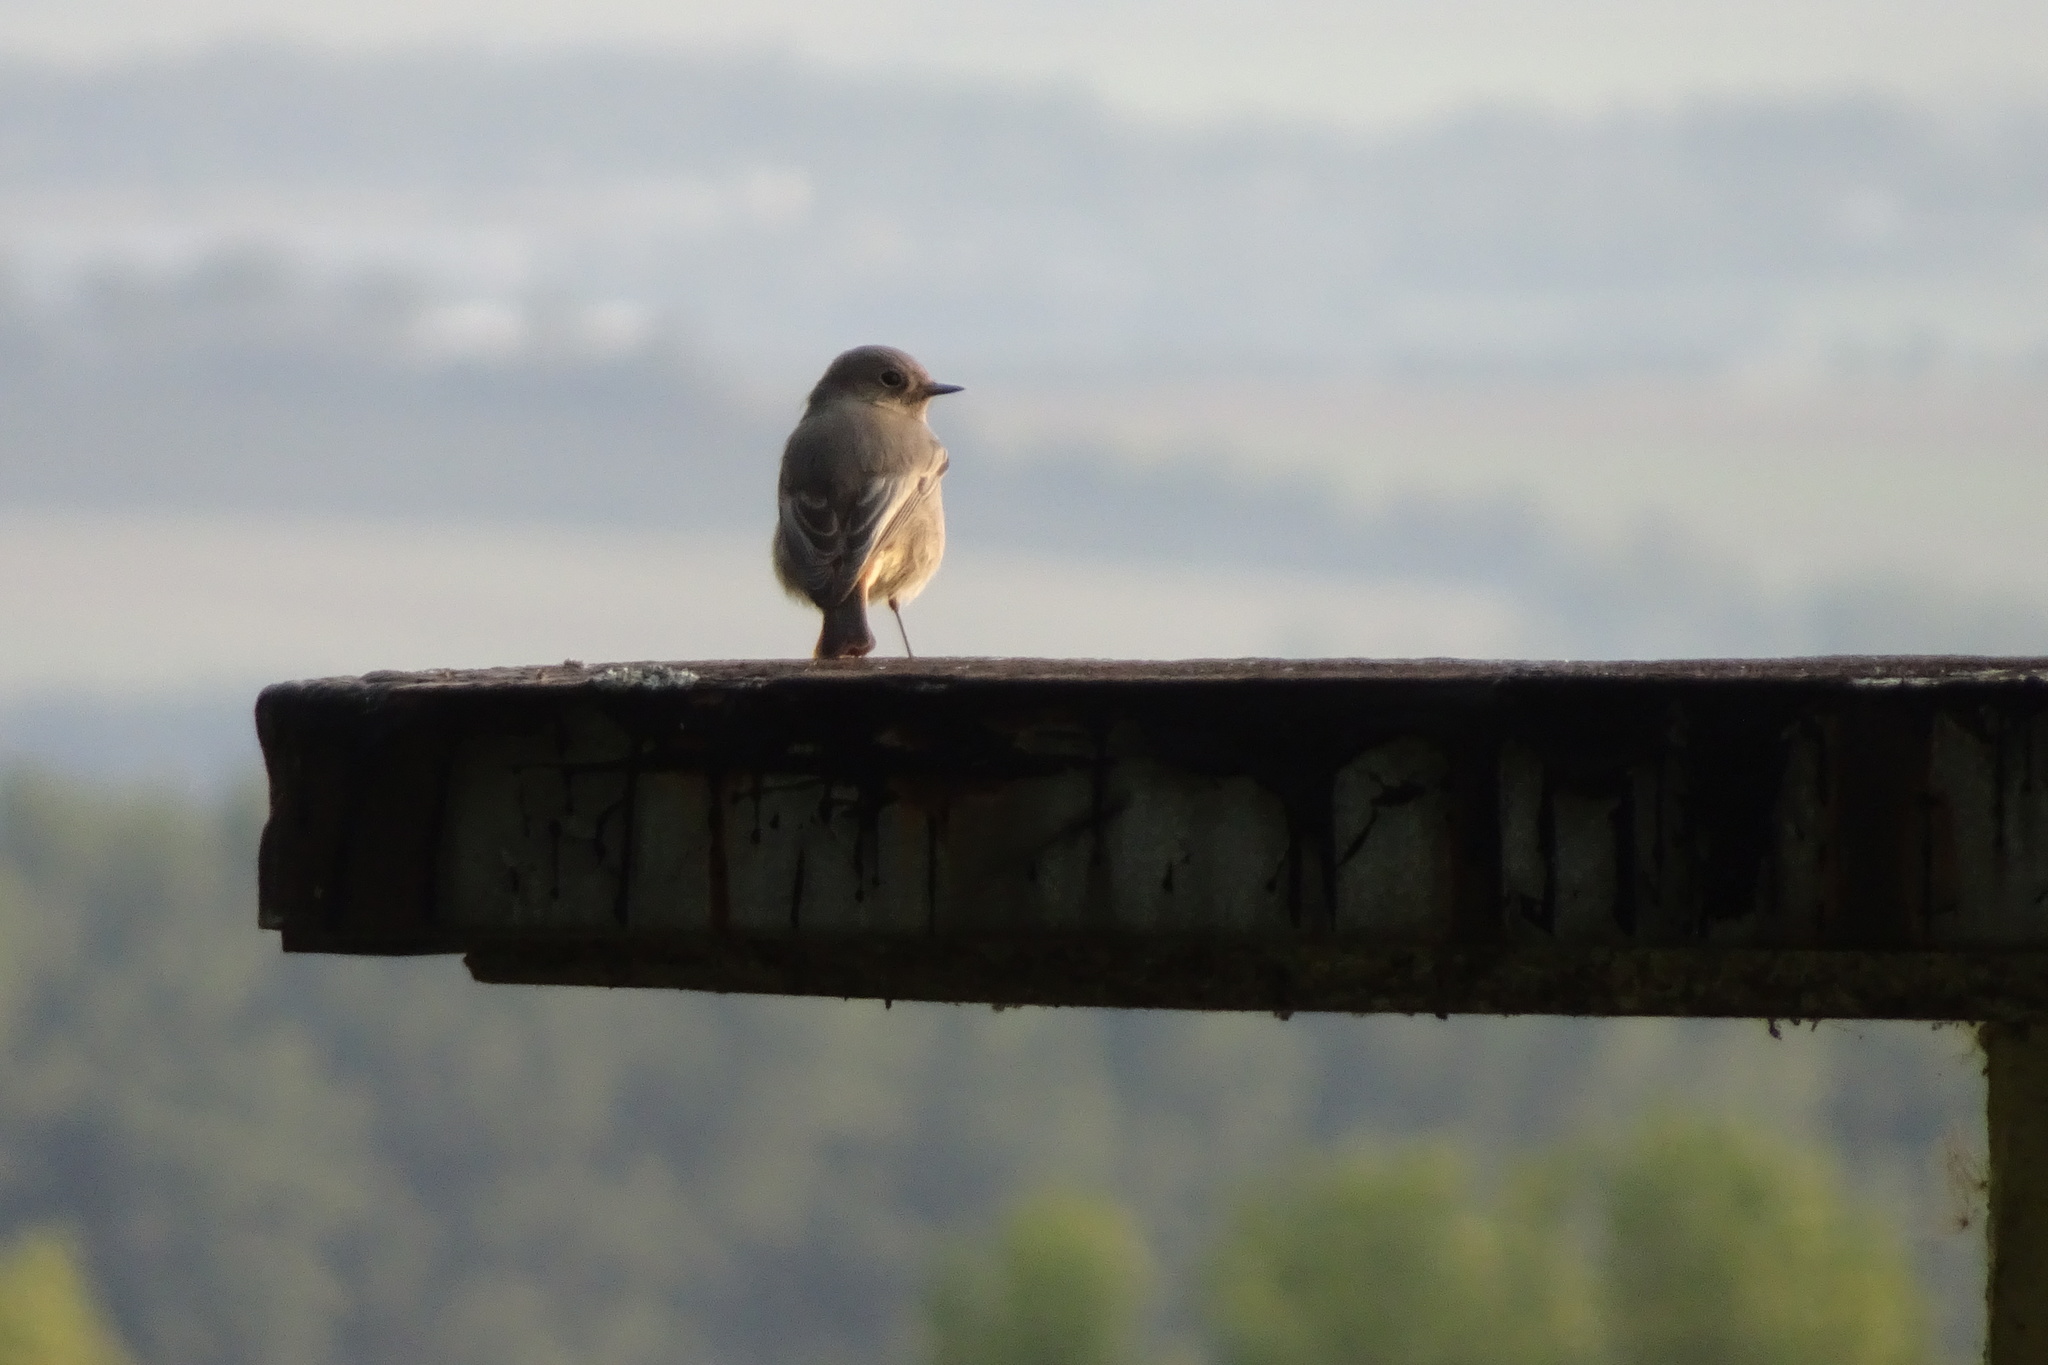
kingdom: Animalia
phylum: Chordata
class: Aves
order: Passeriformes
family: Muscicapidae
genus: Phoenicurus
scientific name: Phoenicurus ochruros
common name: Black redstart
